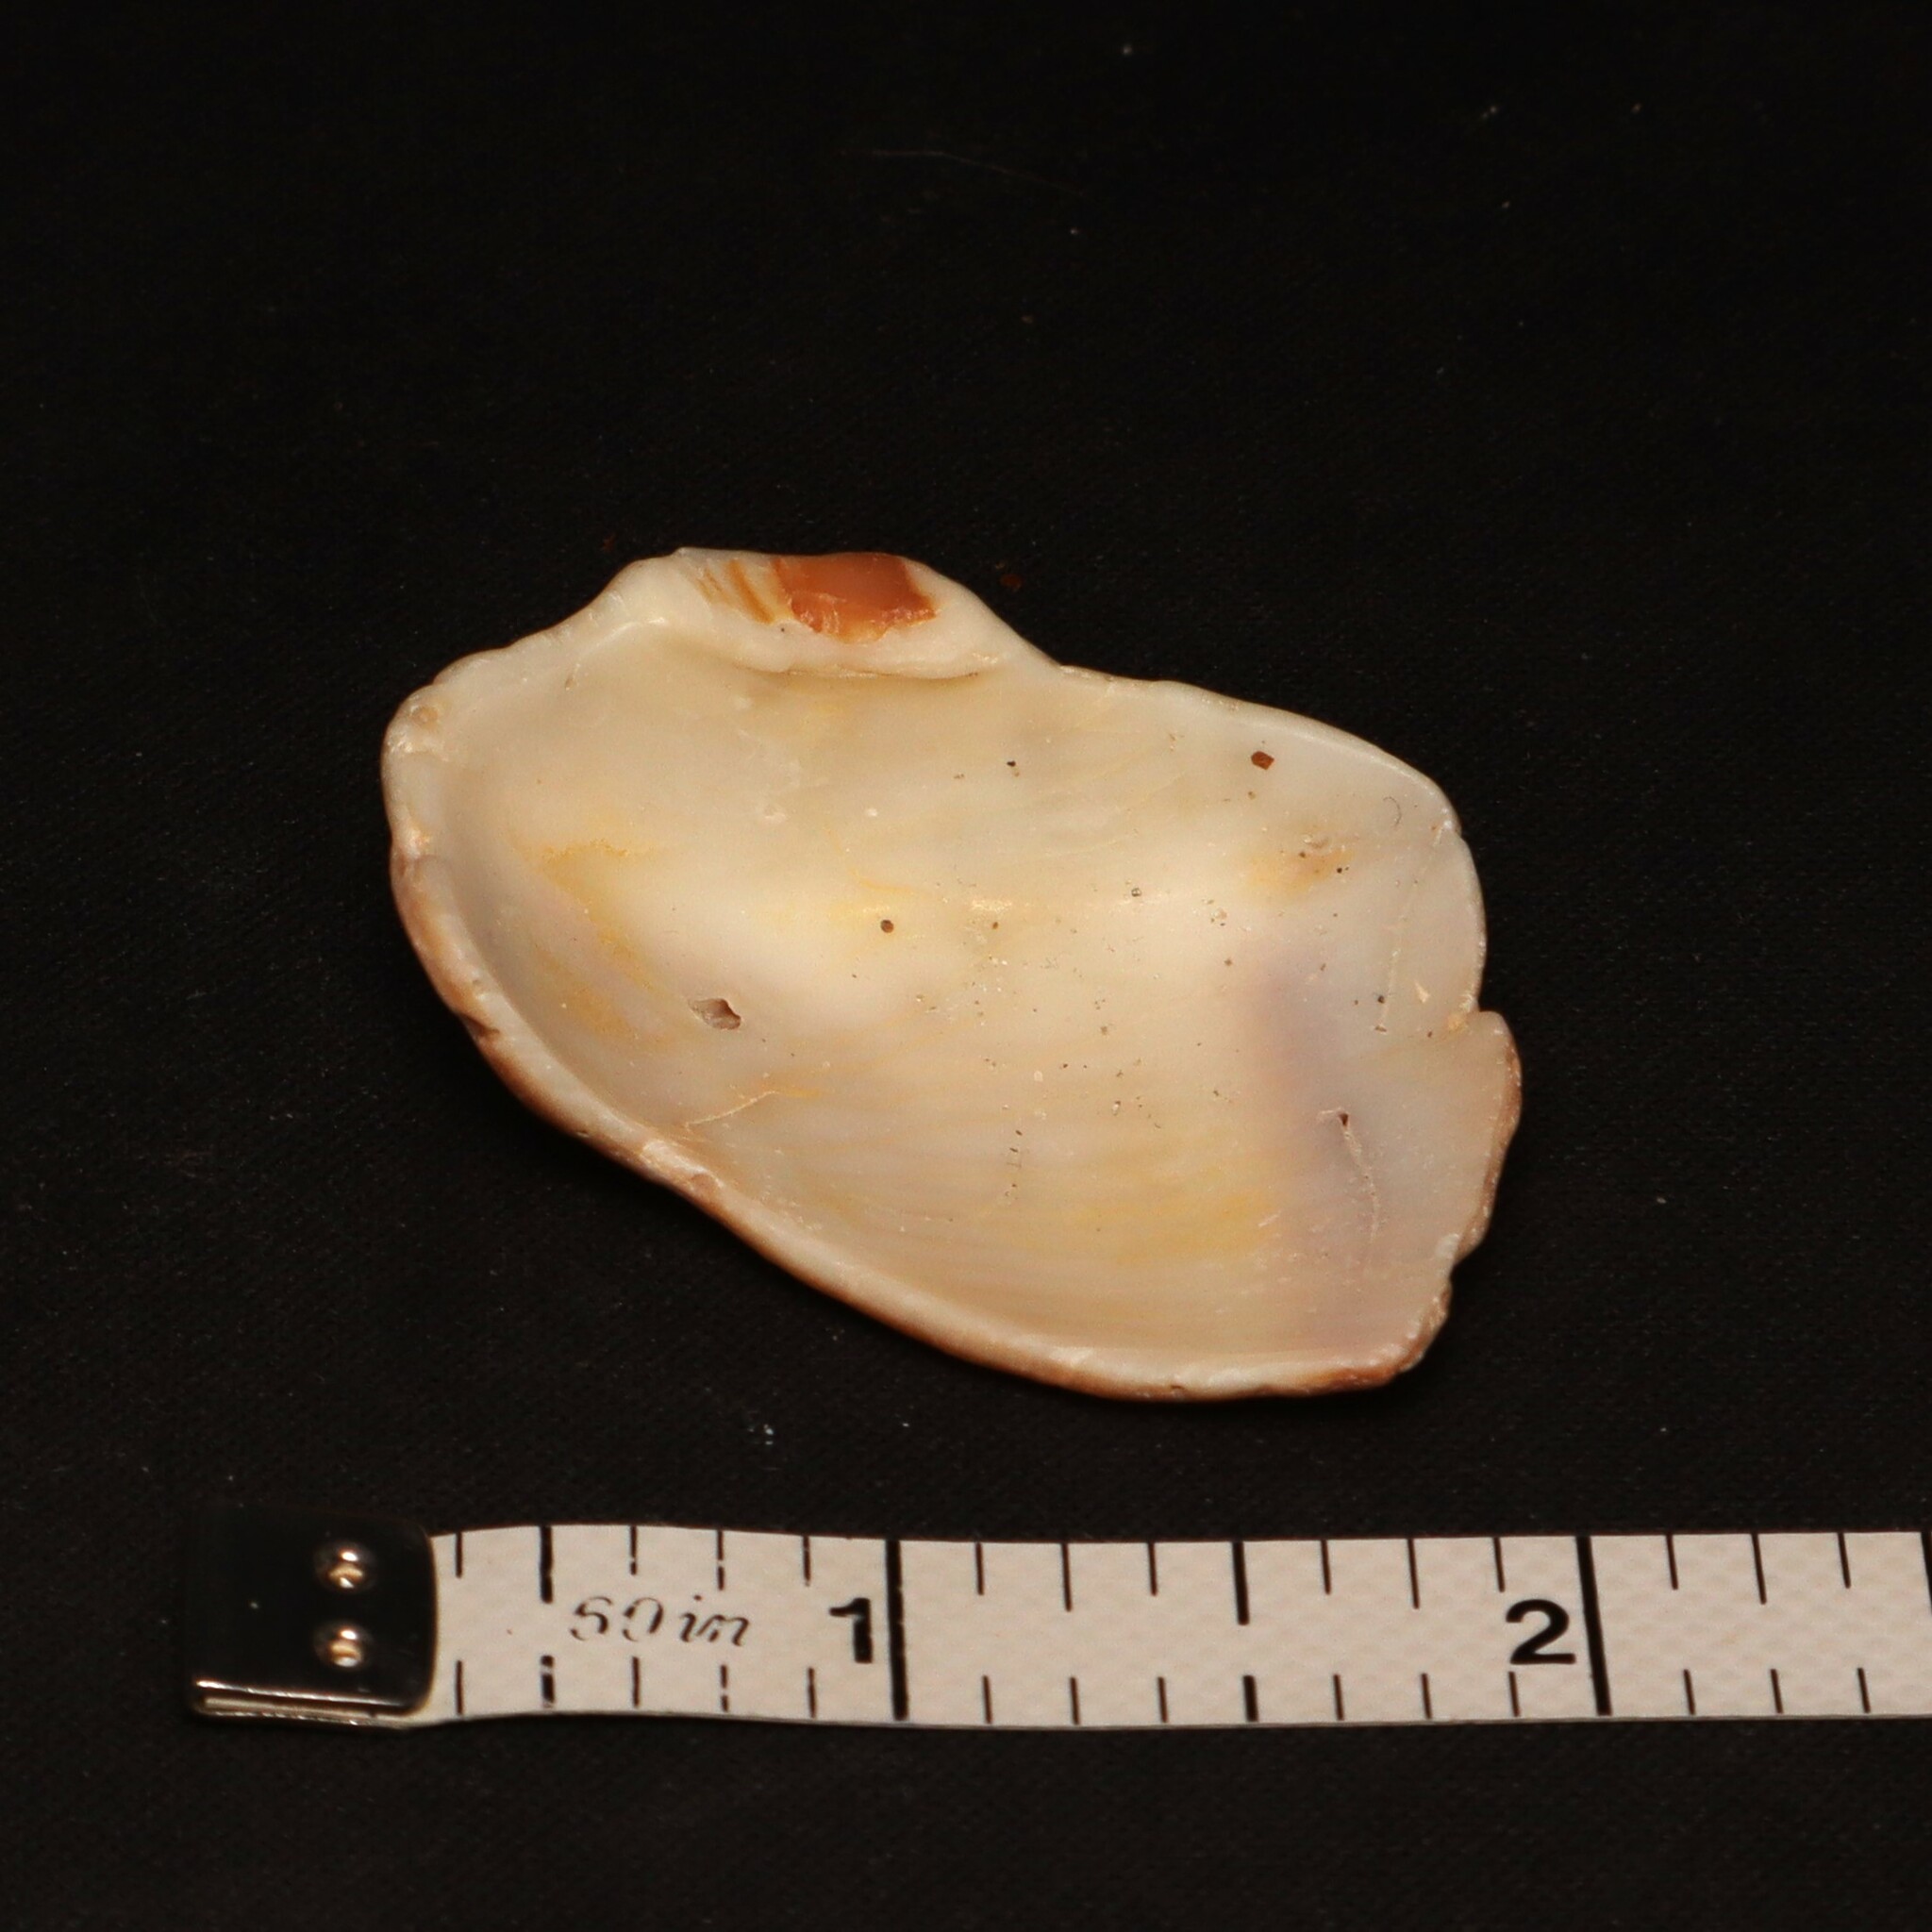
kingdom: Animalia
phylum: Mollusca
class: Gastropoda
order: Neogastropoda
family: Busyconidae
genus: Busycon
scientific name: Busycon carica
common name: Knobbed whelk
